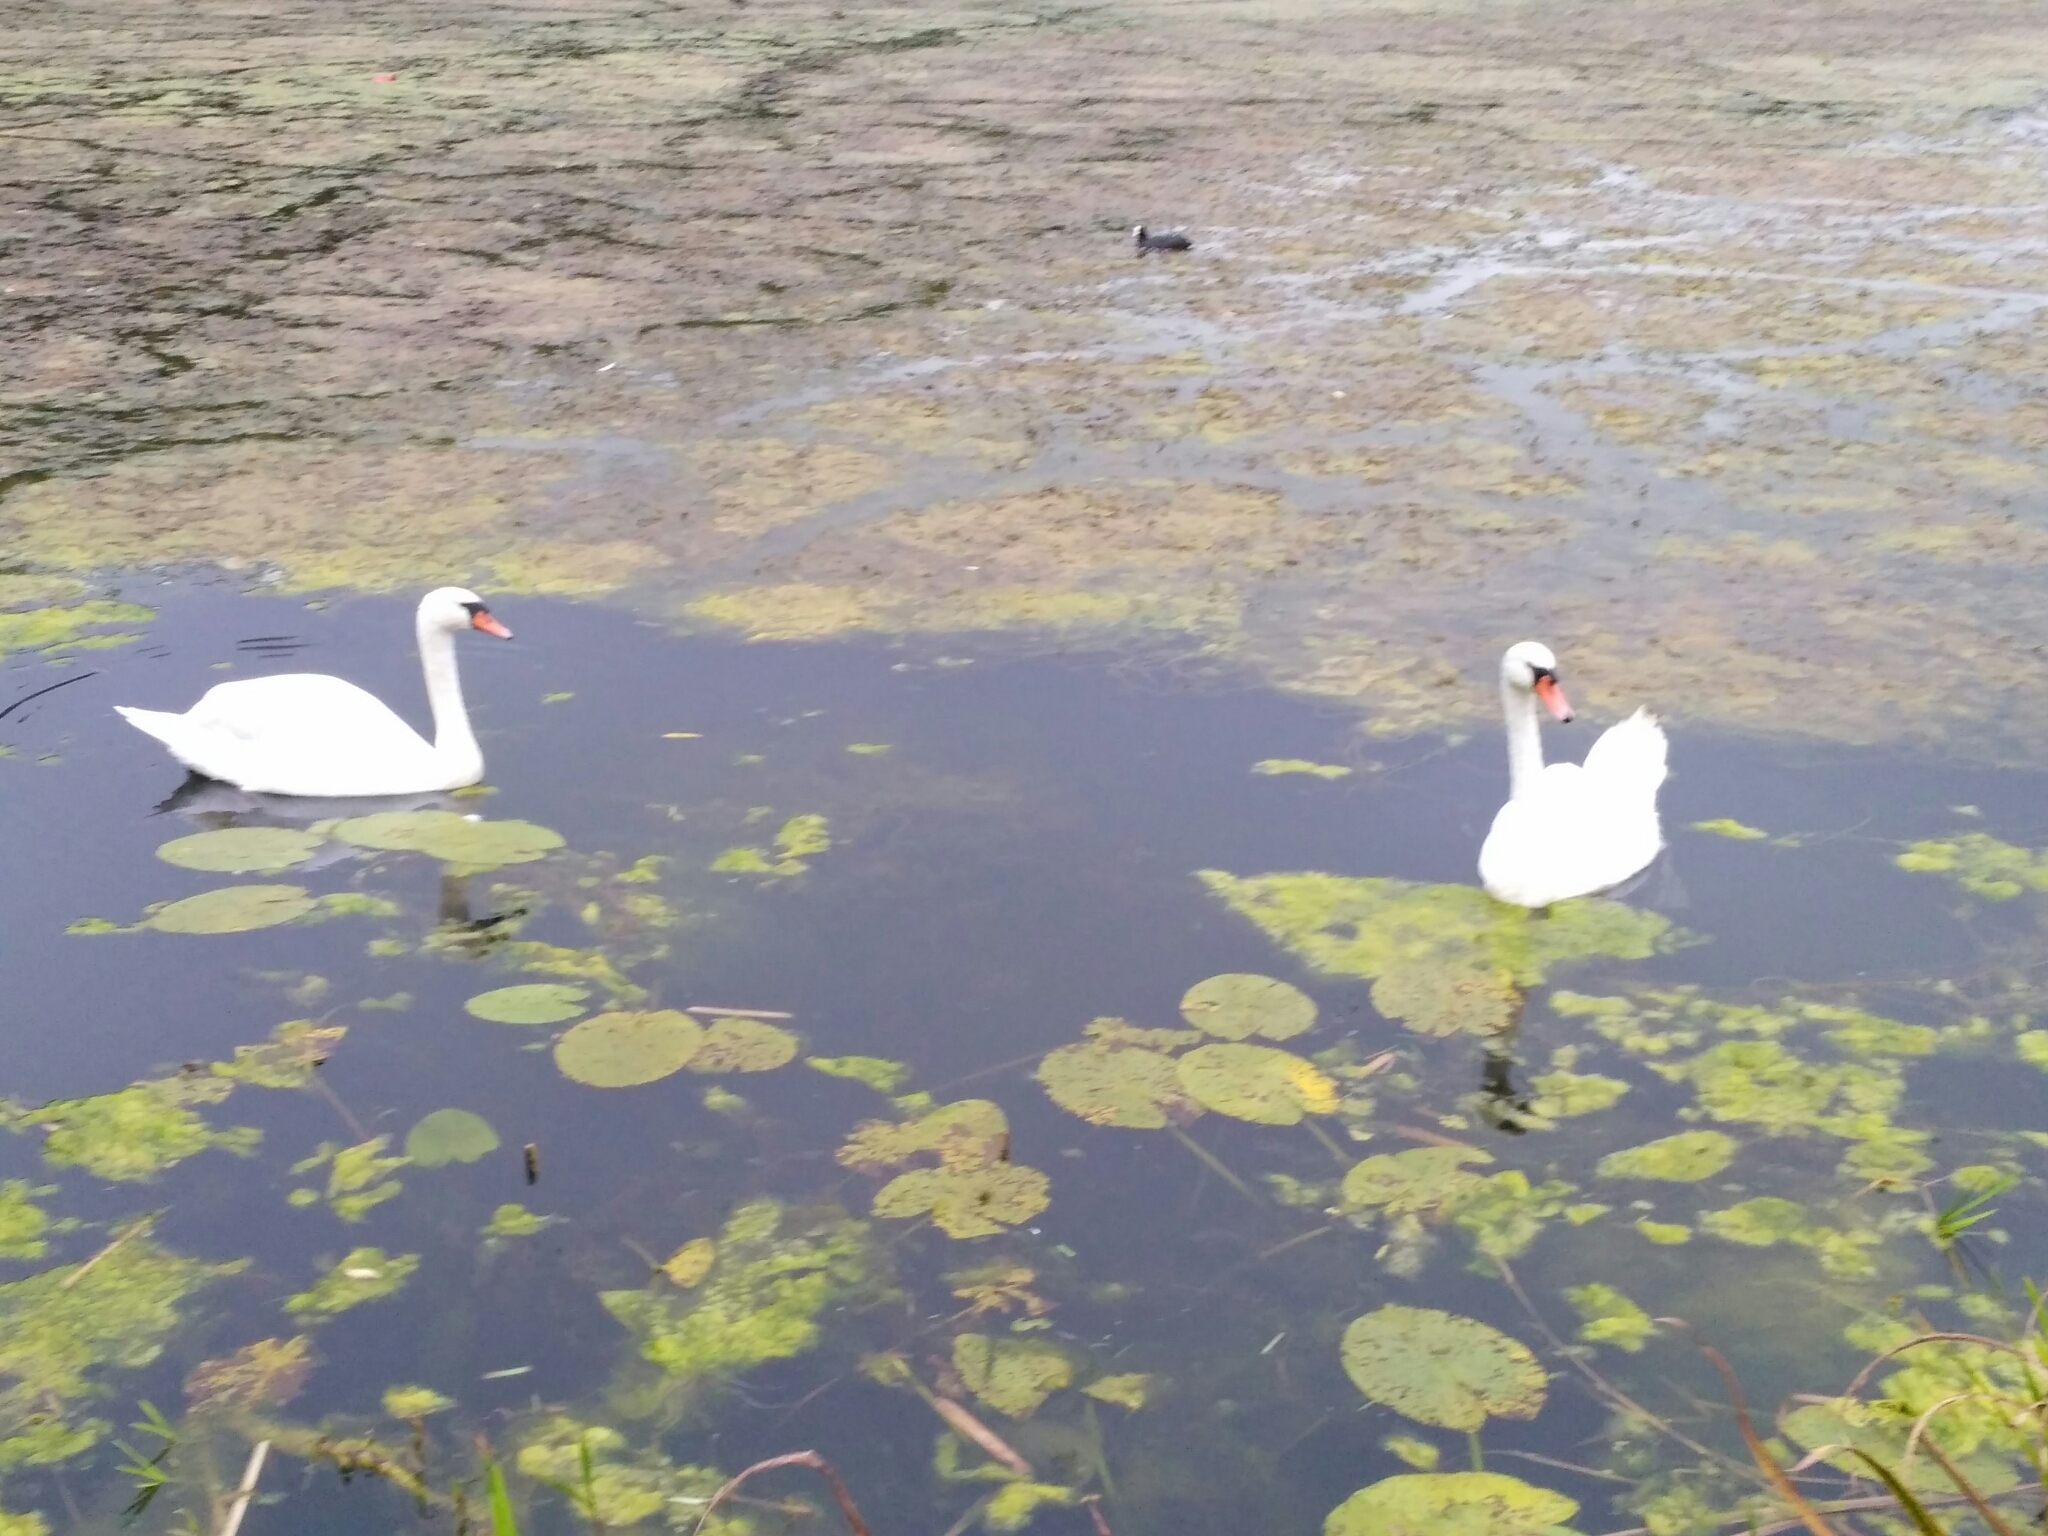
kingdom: Animalia
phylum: Chordata
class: Aves
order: Anseriformes
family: Anatidae
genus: Cygnus
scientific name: Cygnus olor
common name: Mute swan
